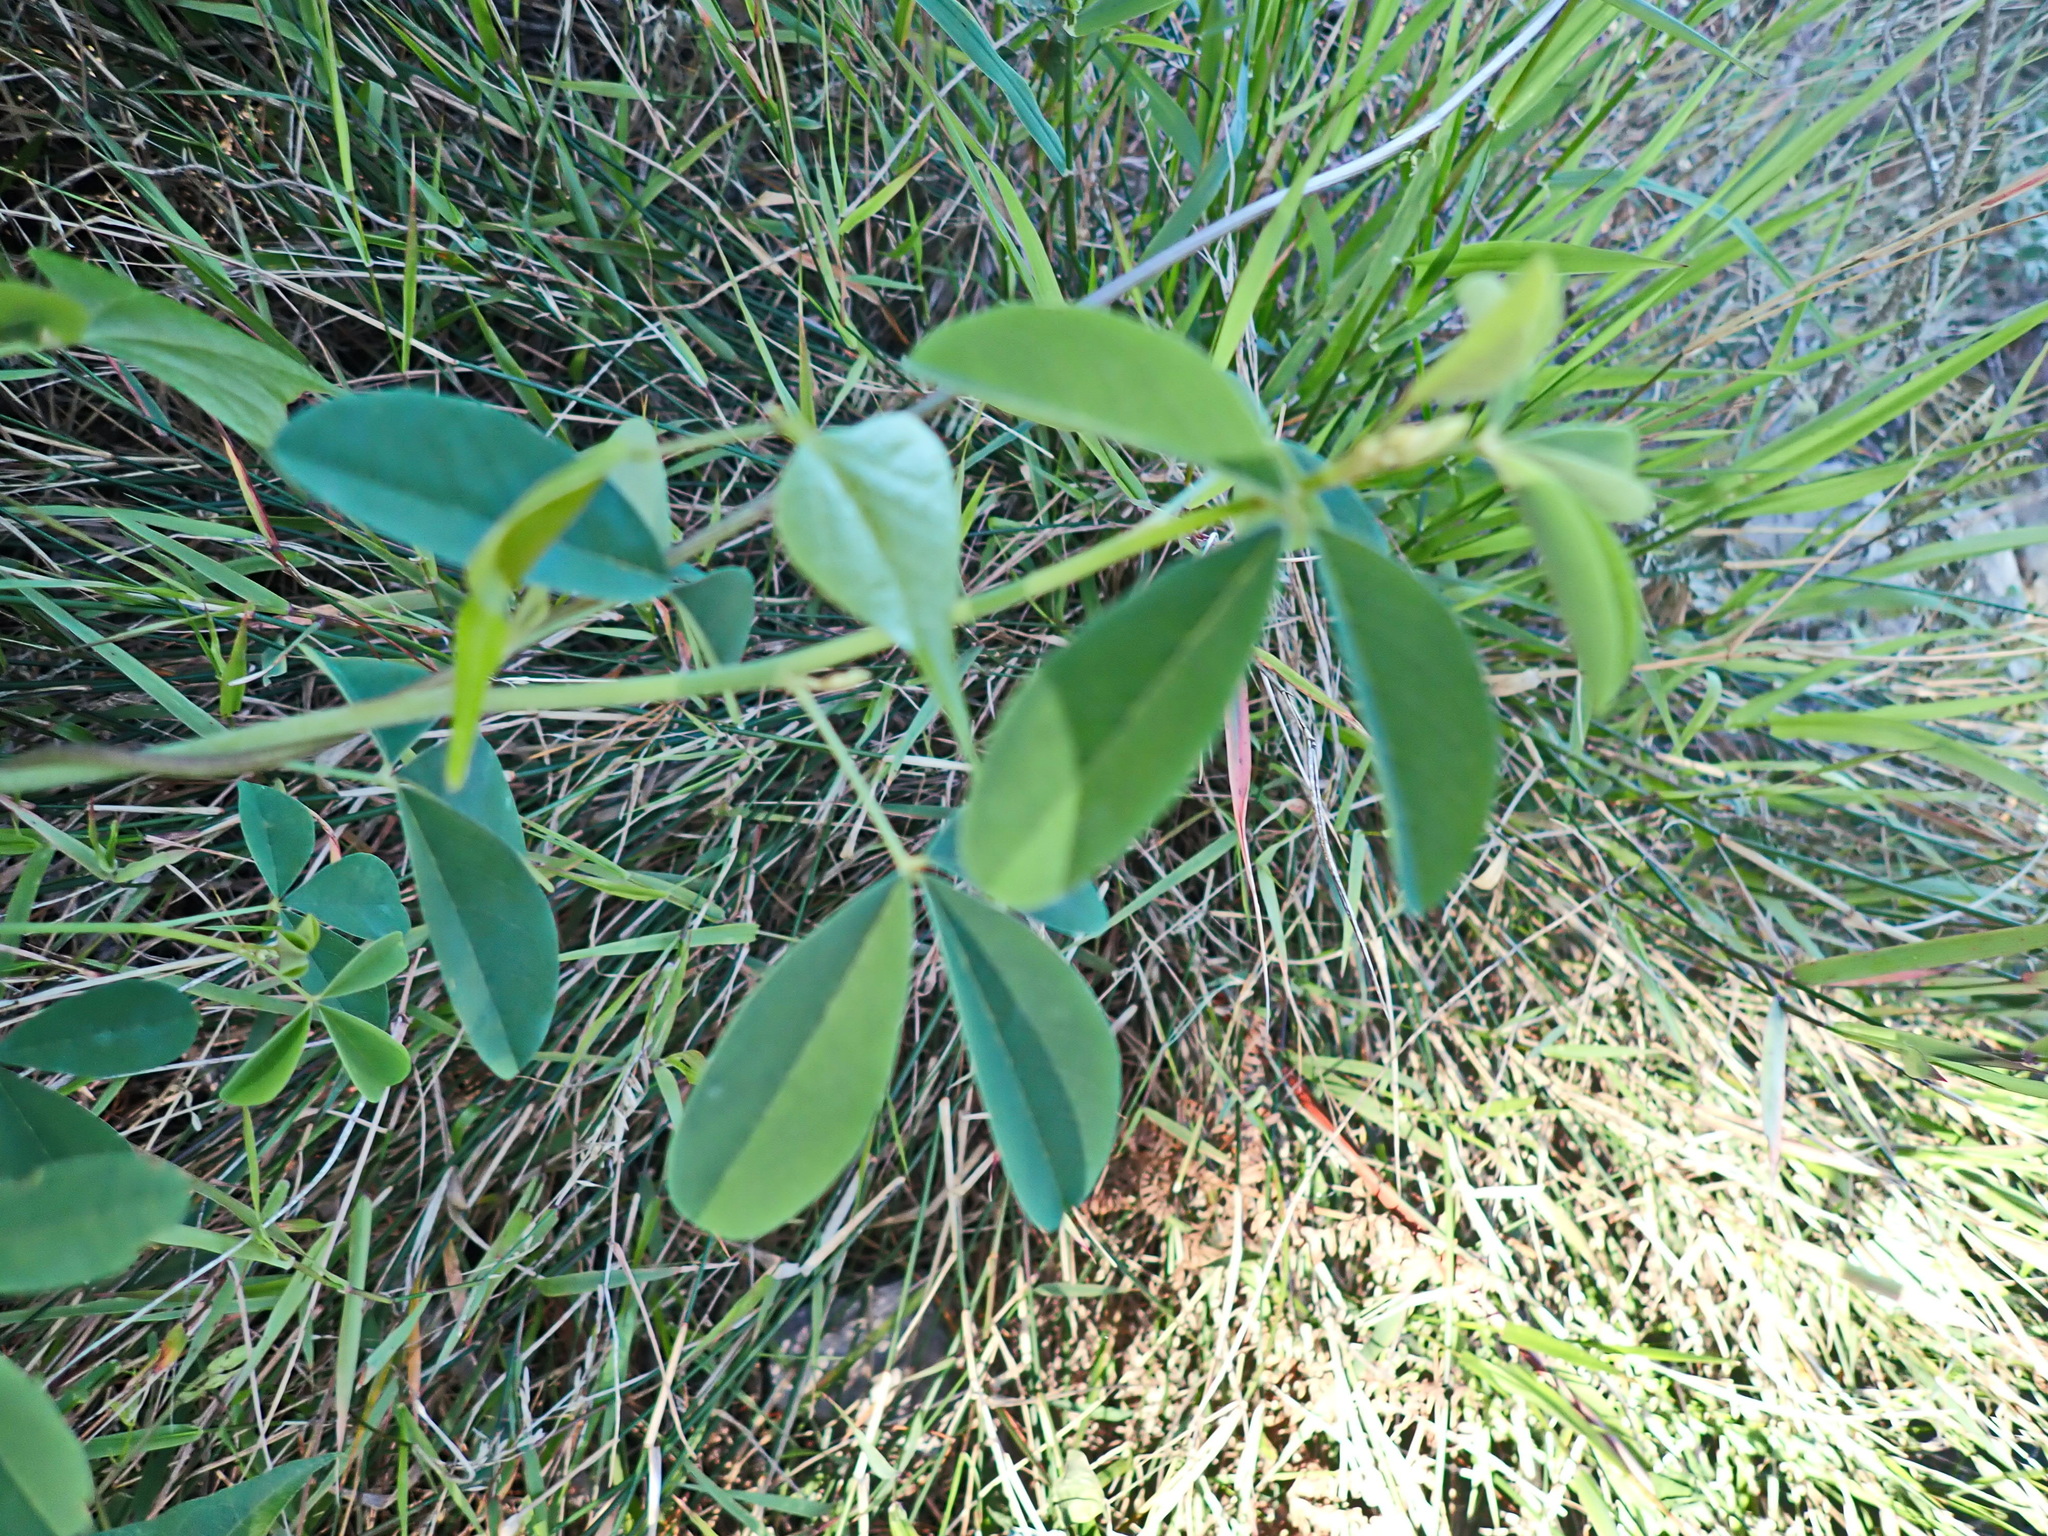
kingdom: Plantae
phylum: Tracheophyta
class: Magnoliopsida
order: Fabales
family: Fabaceae
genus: Hypocalyptus
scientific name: Hypocalyptus coluteoides
